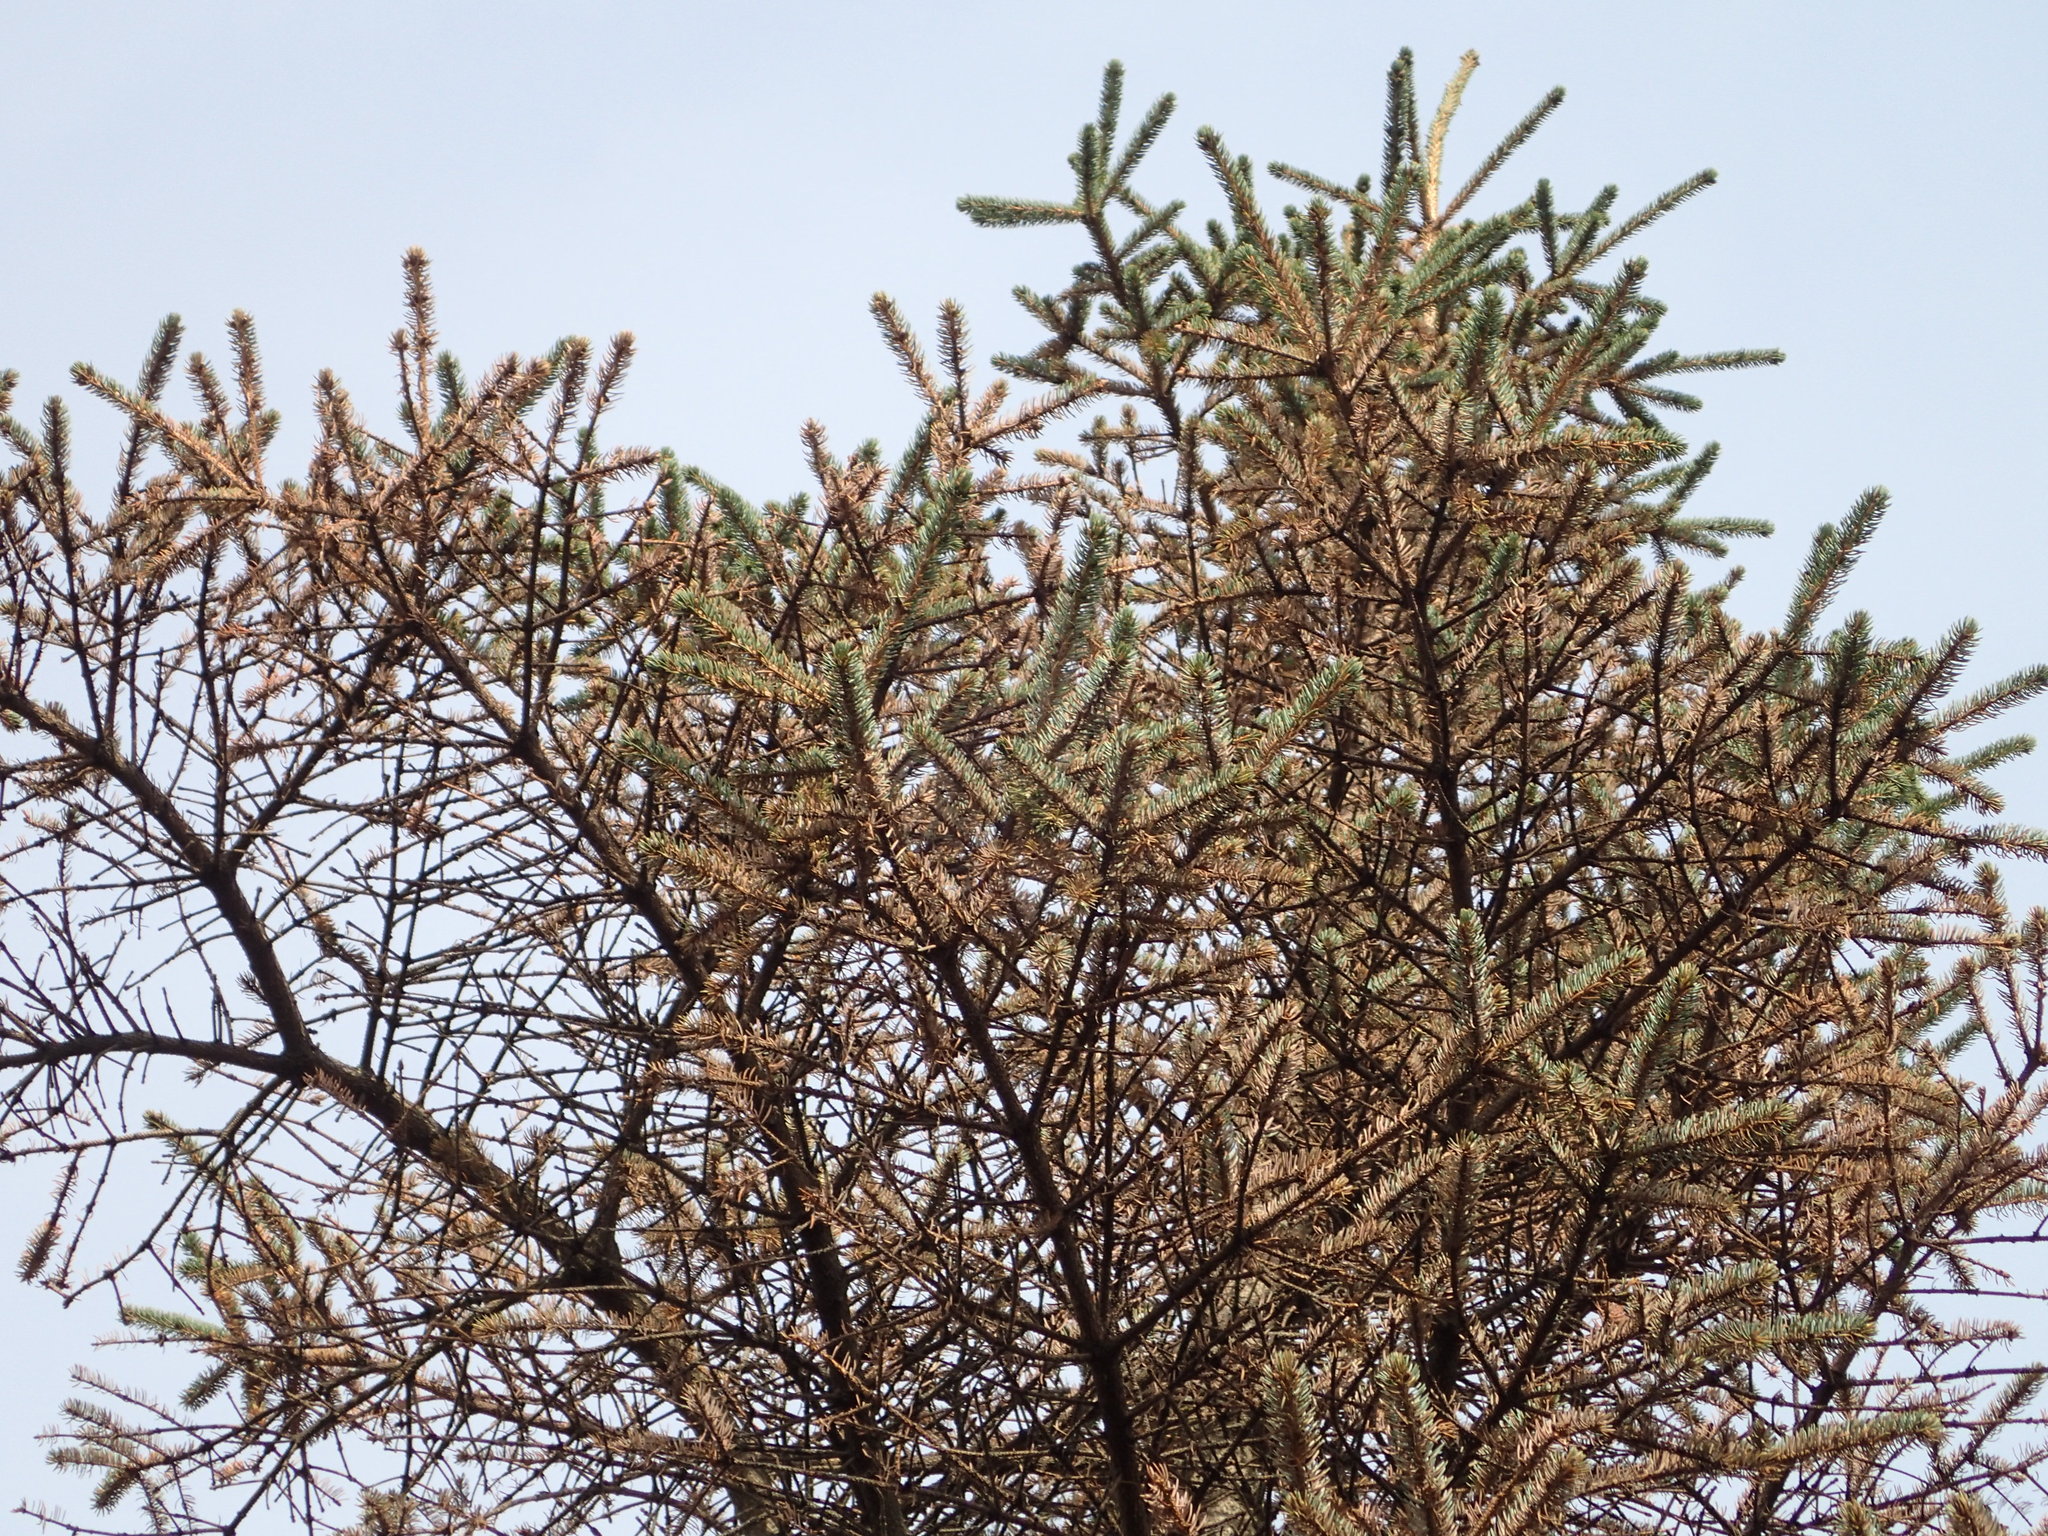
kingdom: Plantae
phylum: Tracheophyta
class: Pinopsida
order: Pinales
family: Pinaceae
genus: Picea
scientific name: Picea sitchensis
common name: Sitka spruce
